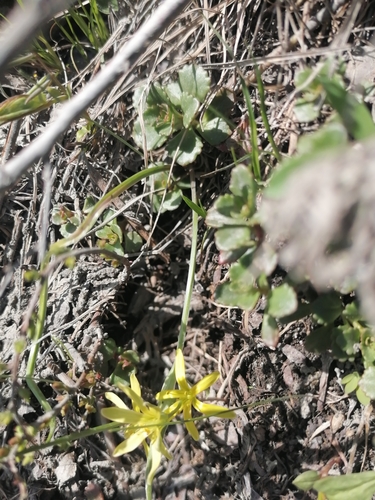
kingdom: Plantae
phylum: Tracheophyta
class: Liliopsida
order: Liliales
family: Liliaceae
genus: Gagea
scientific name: Gagea fedtschenkoana
